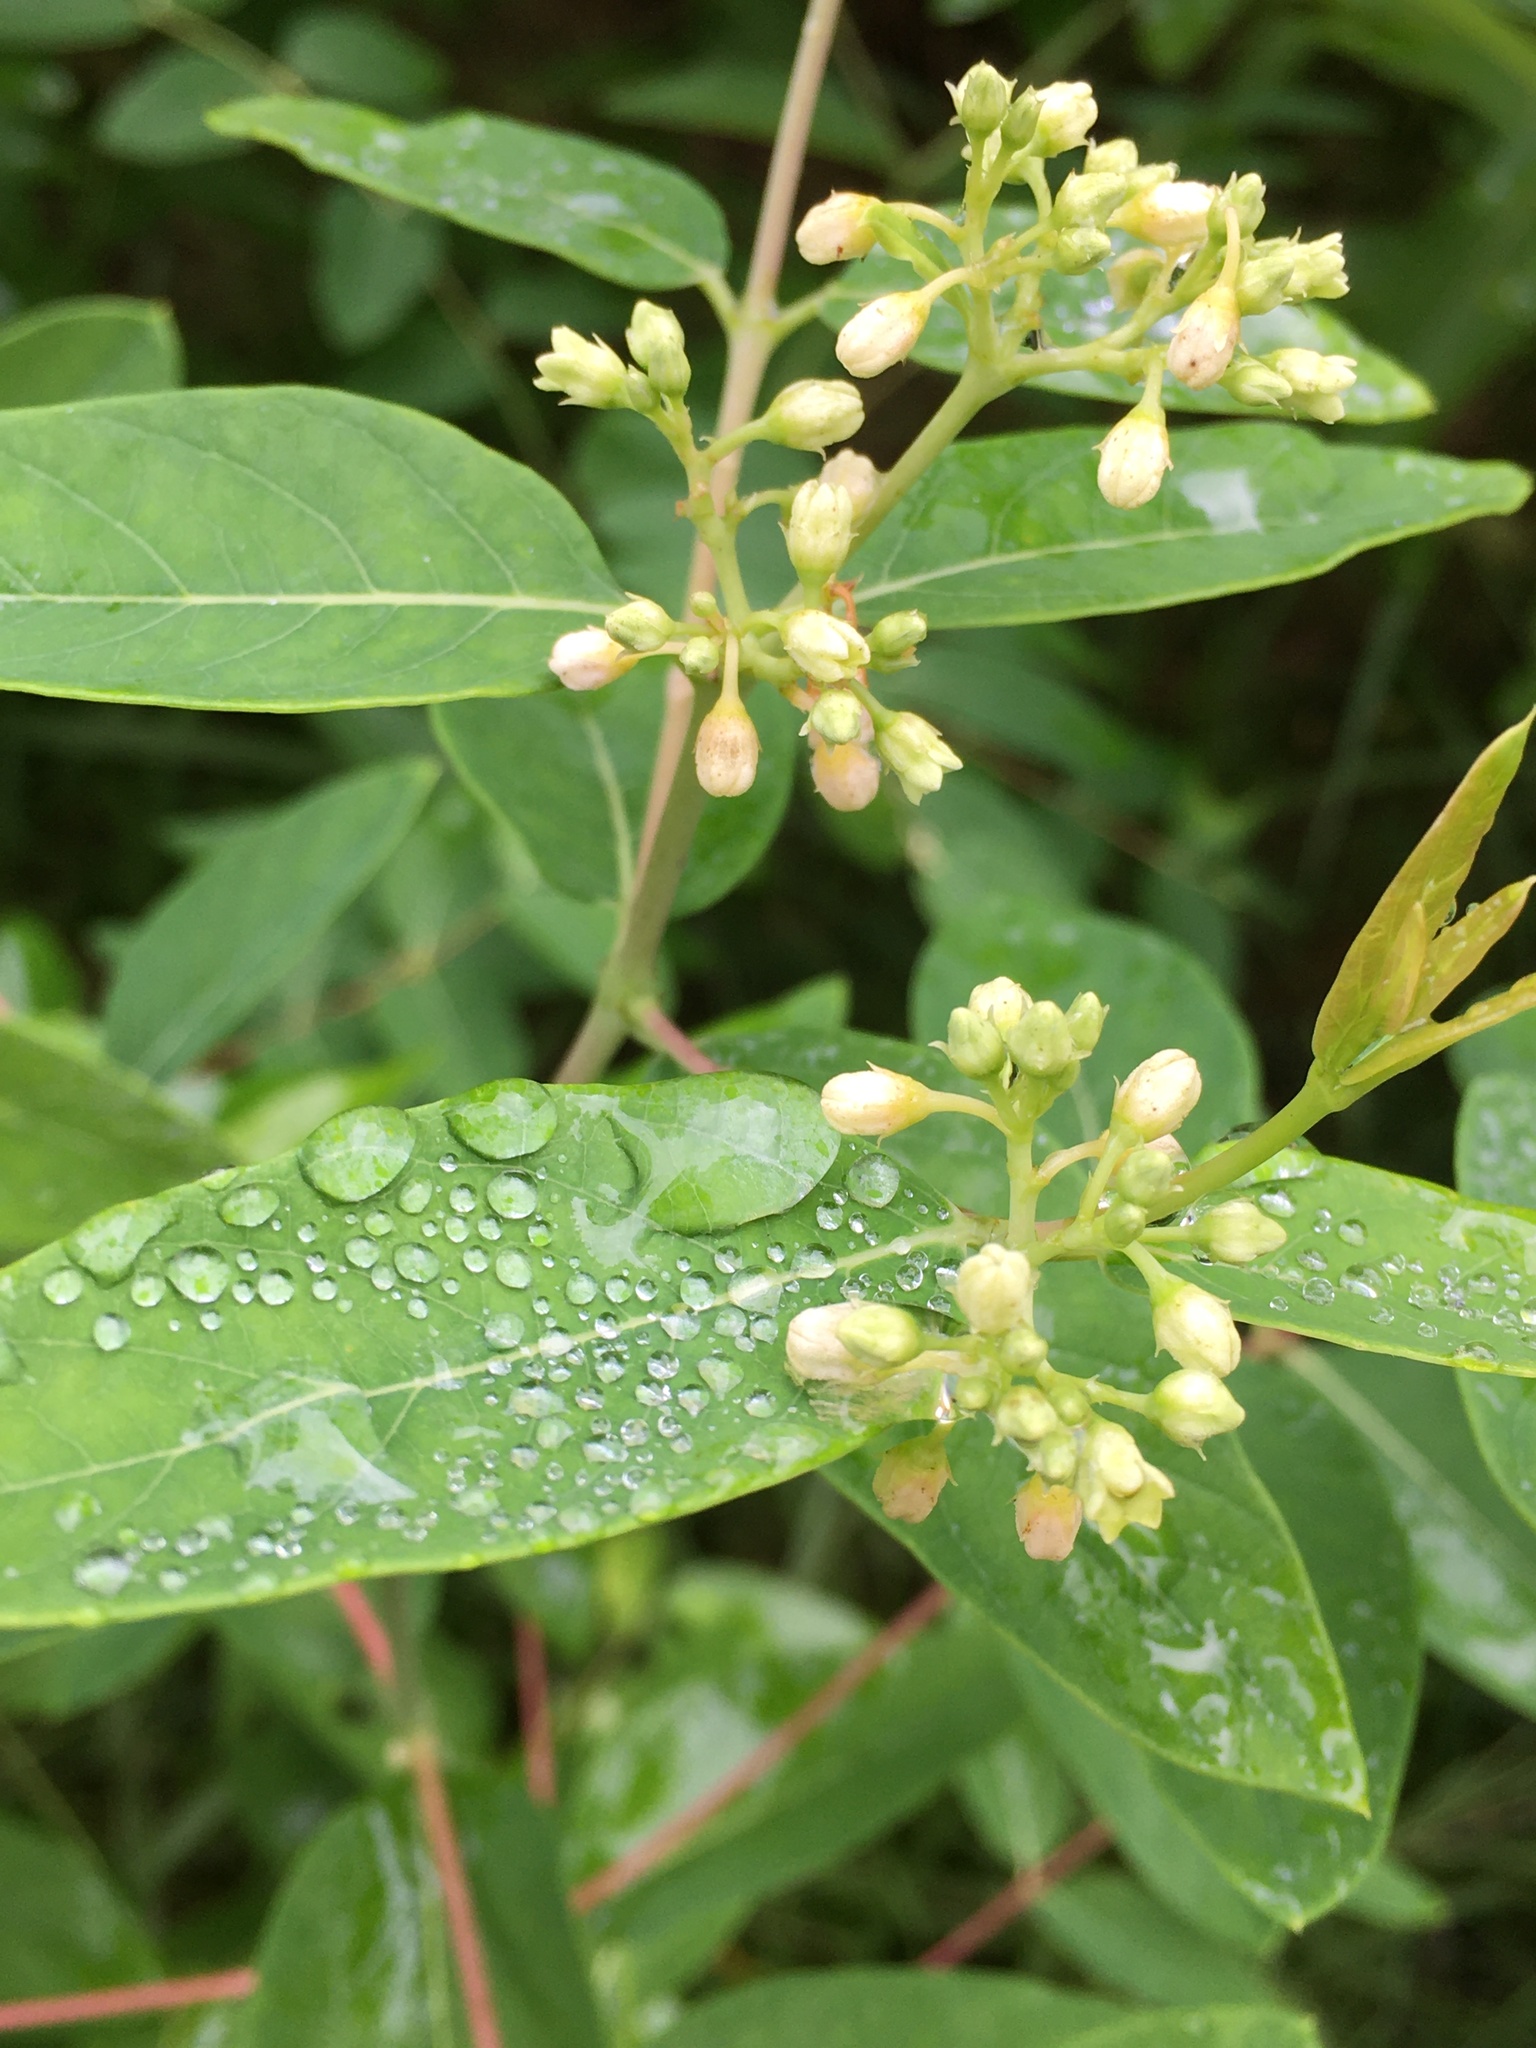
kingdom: Plantae
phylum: Tracheophyta
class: Magnoliopsida
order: Gentianales
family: Apocynaceae
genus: Apocynum
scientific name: Apocynum cannabinum
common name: Hemp dogbane
